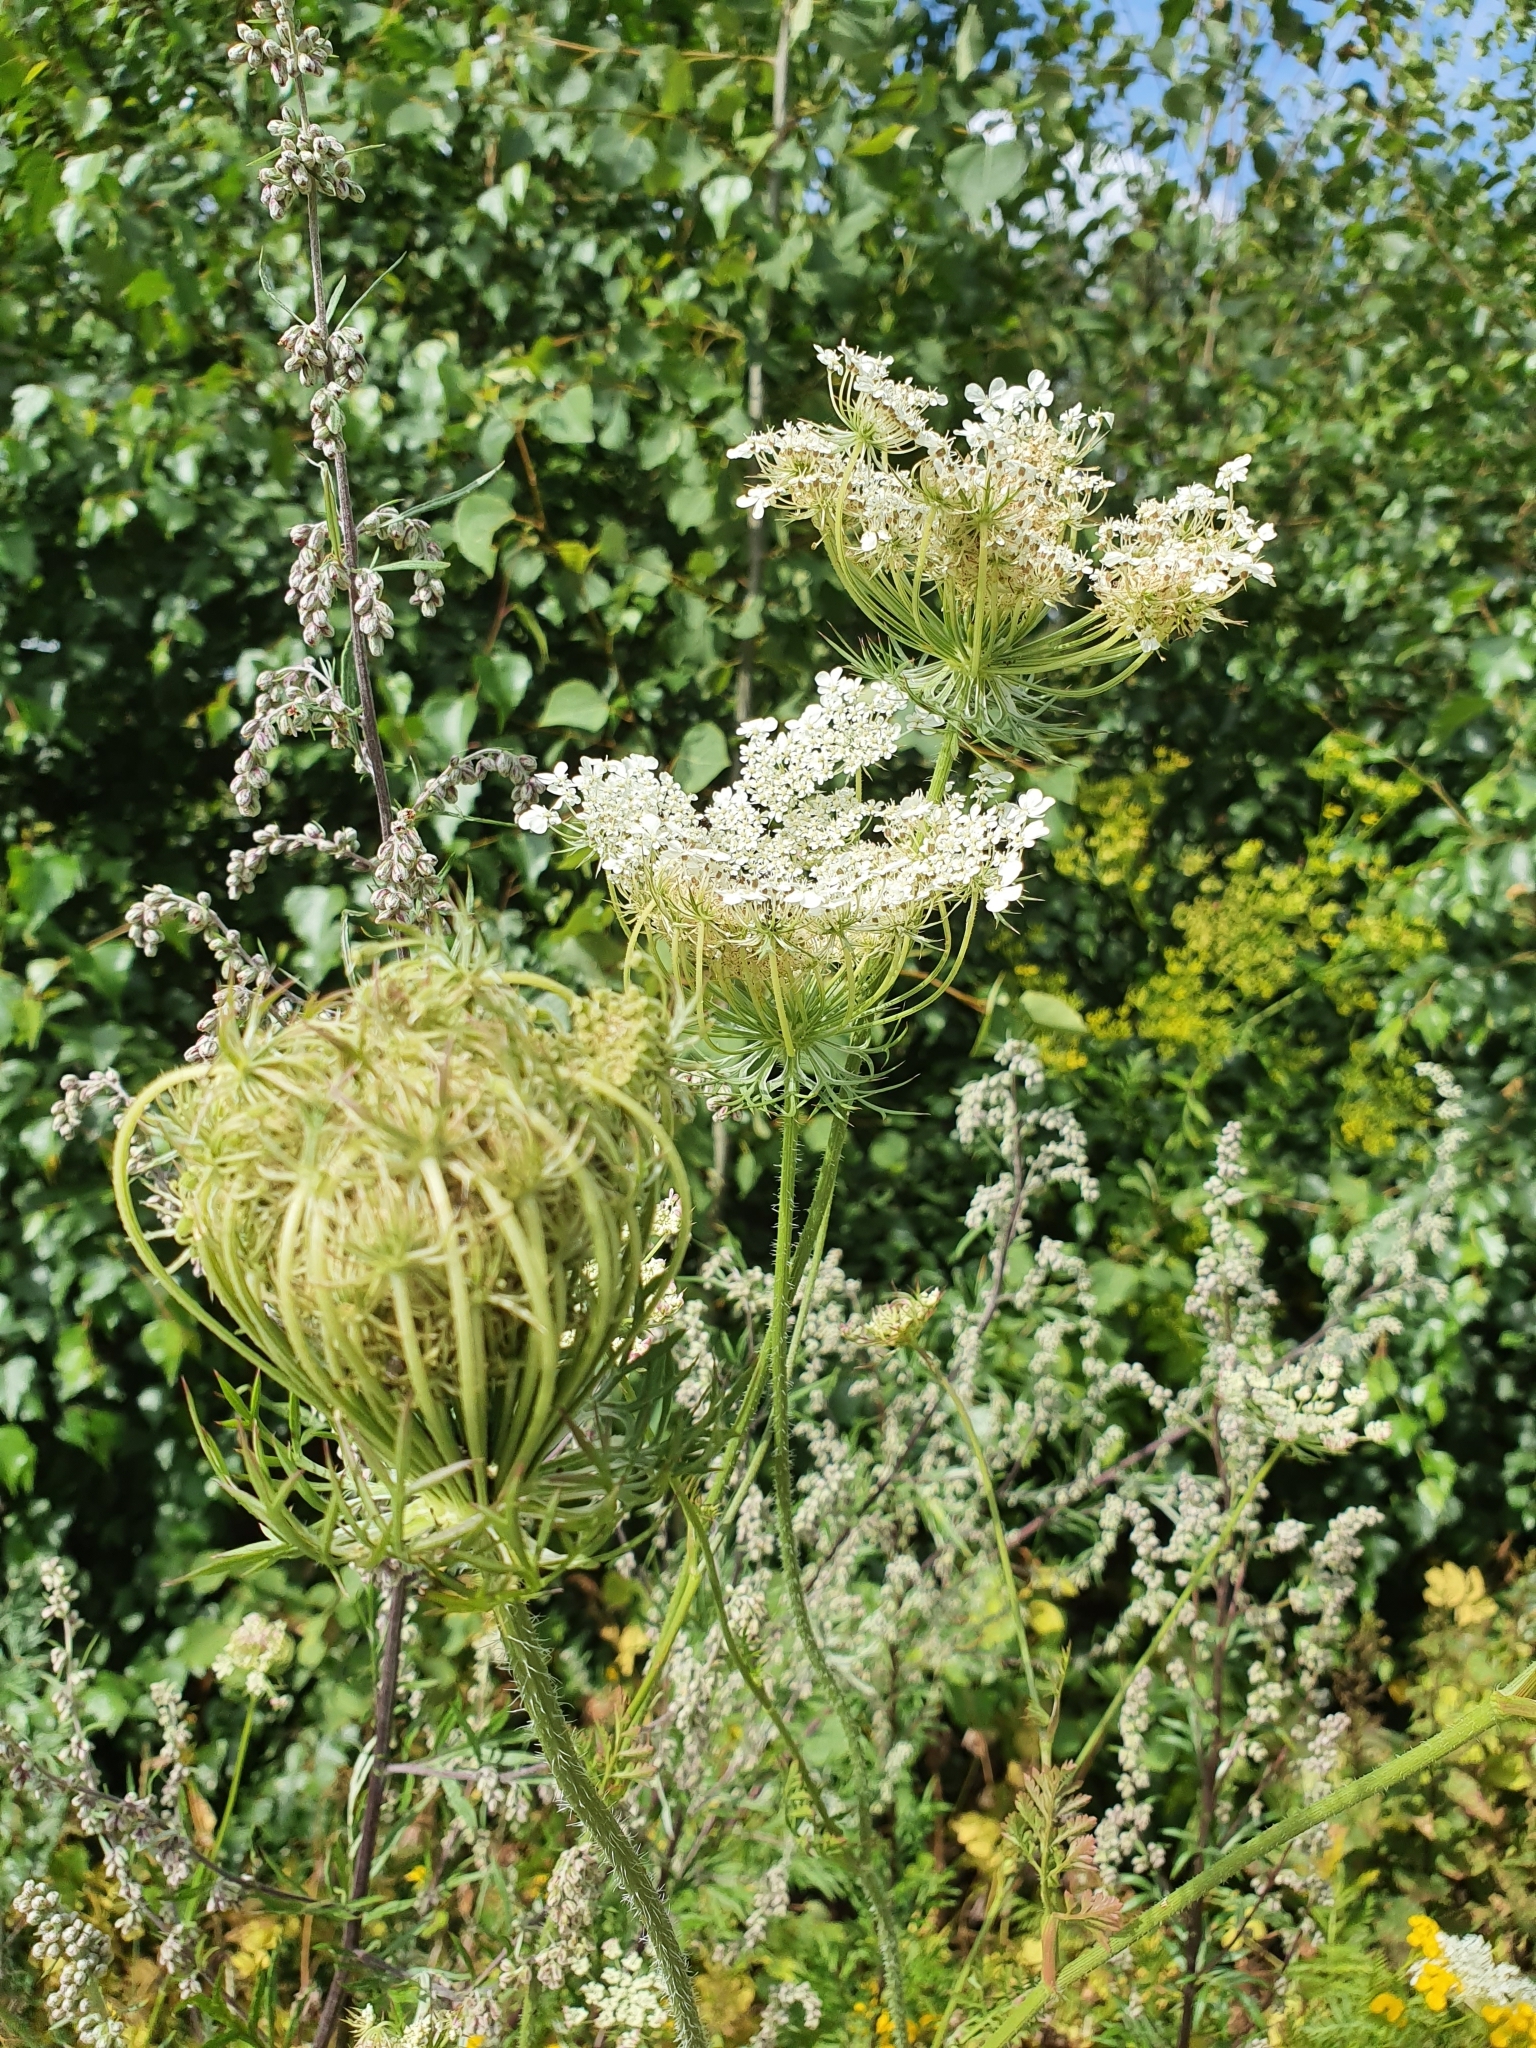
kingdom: Plantae
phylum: Tracheophyta
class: Magnoliopsida
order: Apiales
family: Apiaceae
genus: Daucus
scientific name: Daucus carota
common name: Wild carrot
